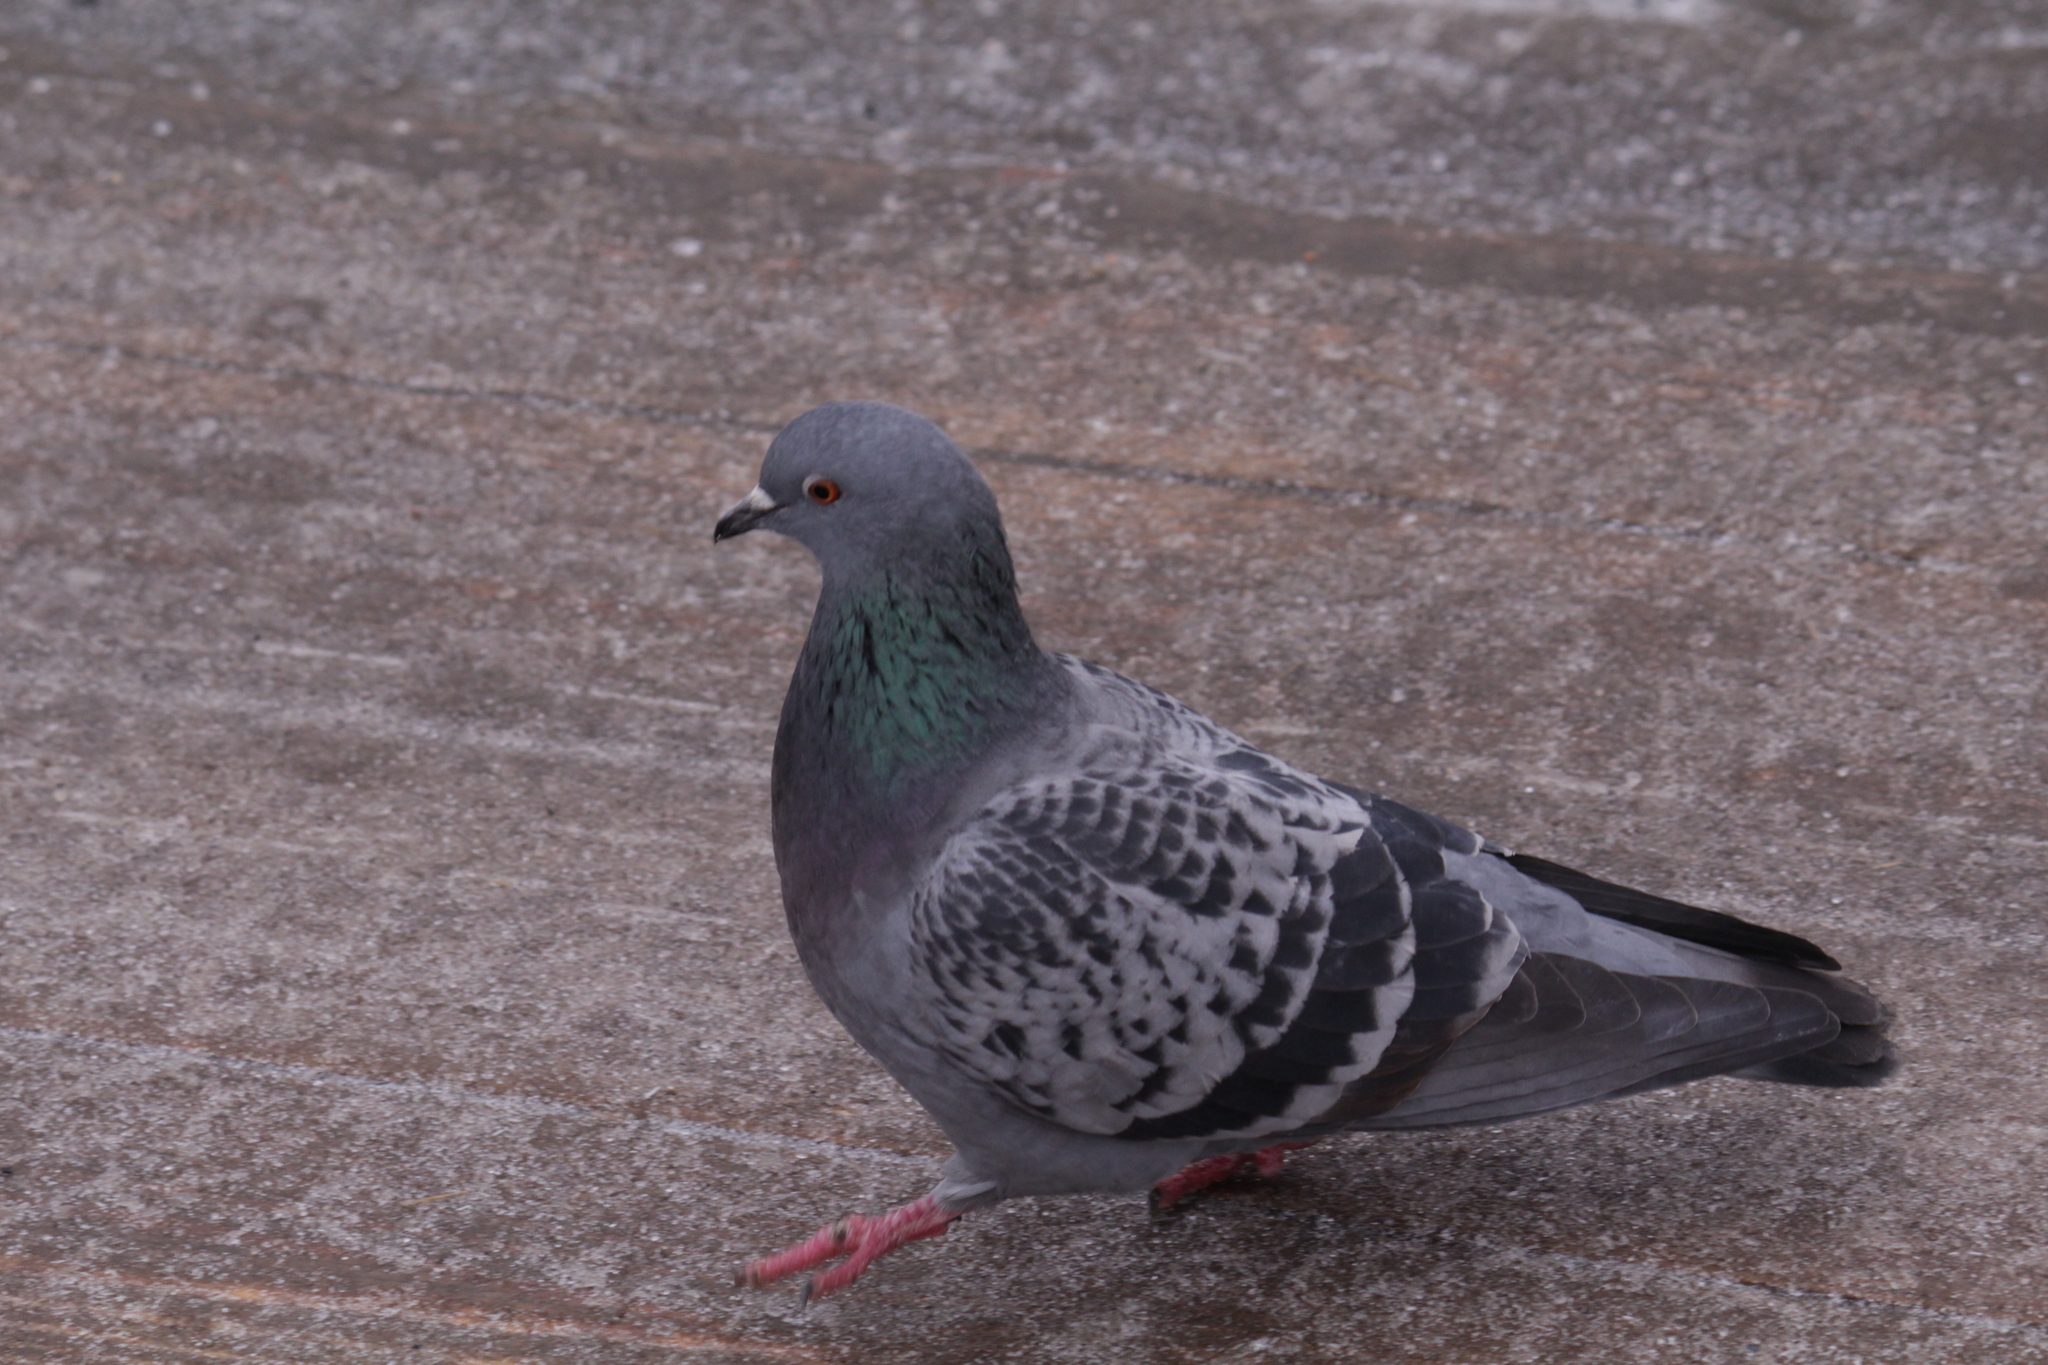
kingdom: Animalia
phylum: Chordata
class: Aves
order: Columbiformes
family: Columbidae
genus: Columba
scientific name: Columba livia
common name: Rock pigeon
